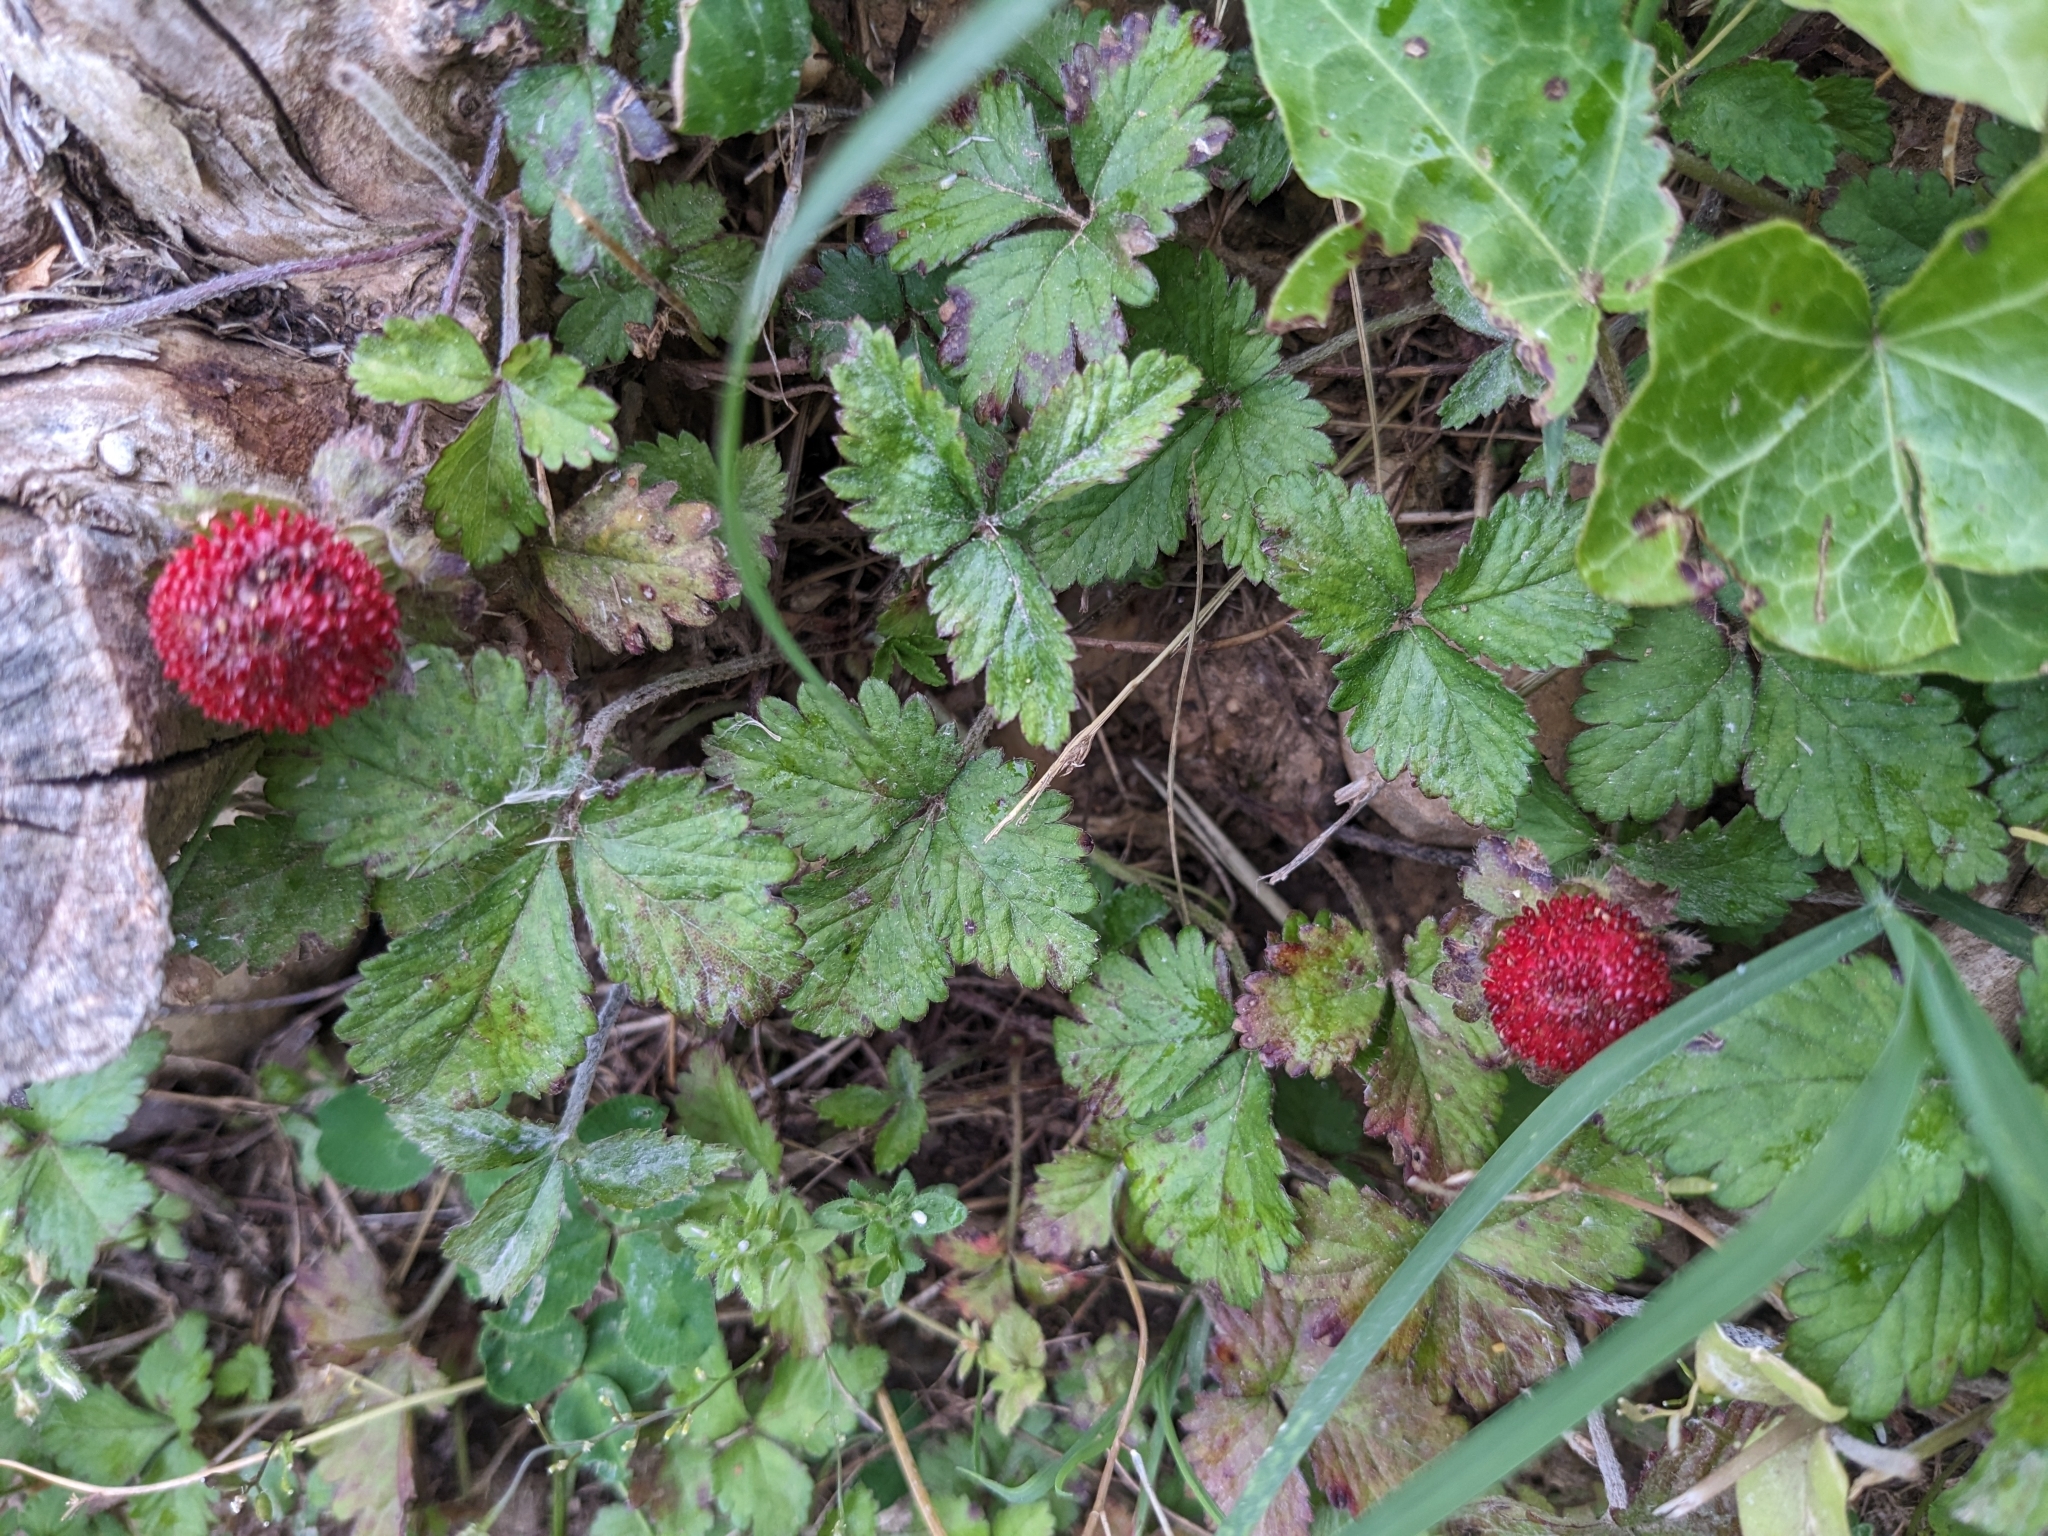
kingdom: Plantae
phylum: Tracheophyta
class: Magnoliopsida
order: Rosales
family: Rosaceae
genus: Potentilla
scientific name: Potentilla indica
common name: Yellow-flowered strawberry
